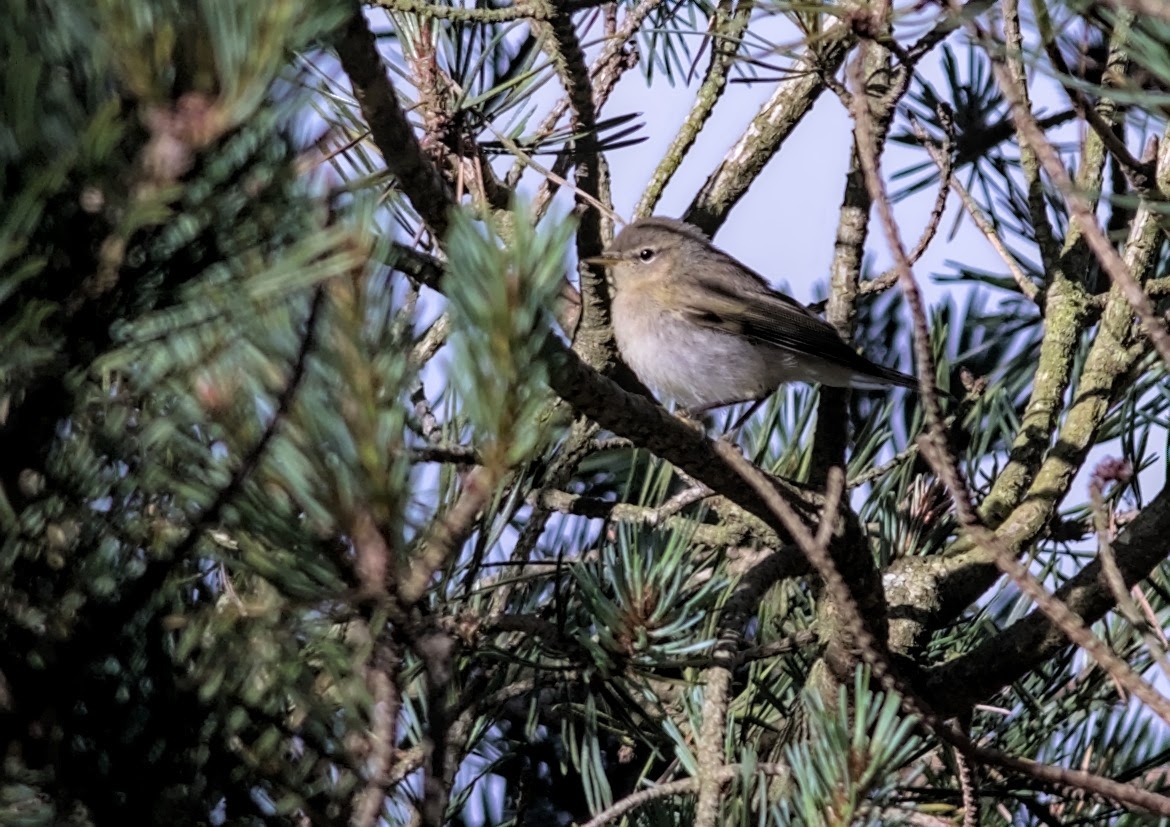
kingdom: Animalia
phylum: Chordata
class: Aves
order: Passeriformes
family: Phylloscopidae
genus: Phylloscopus
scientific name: Phylloscopus collybita
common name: Common chiffchaff
